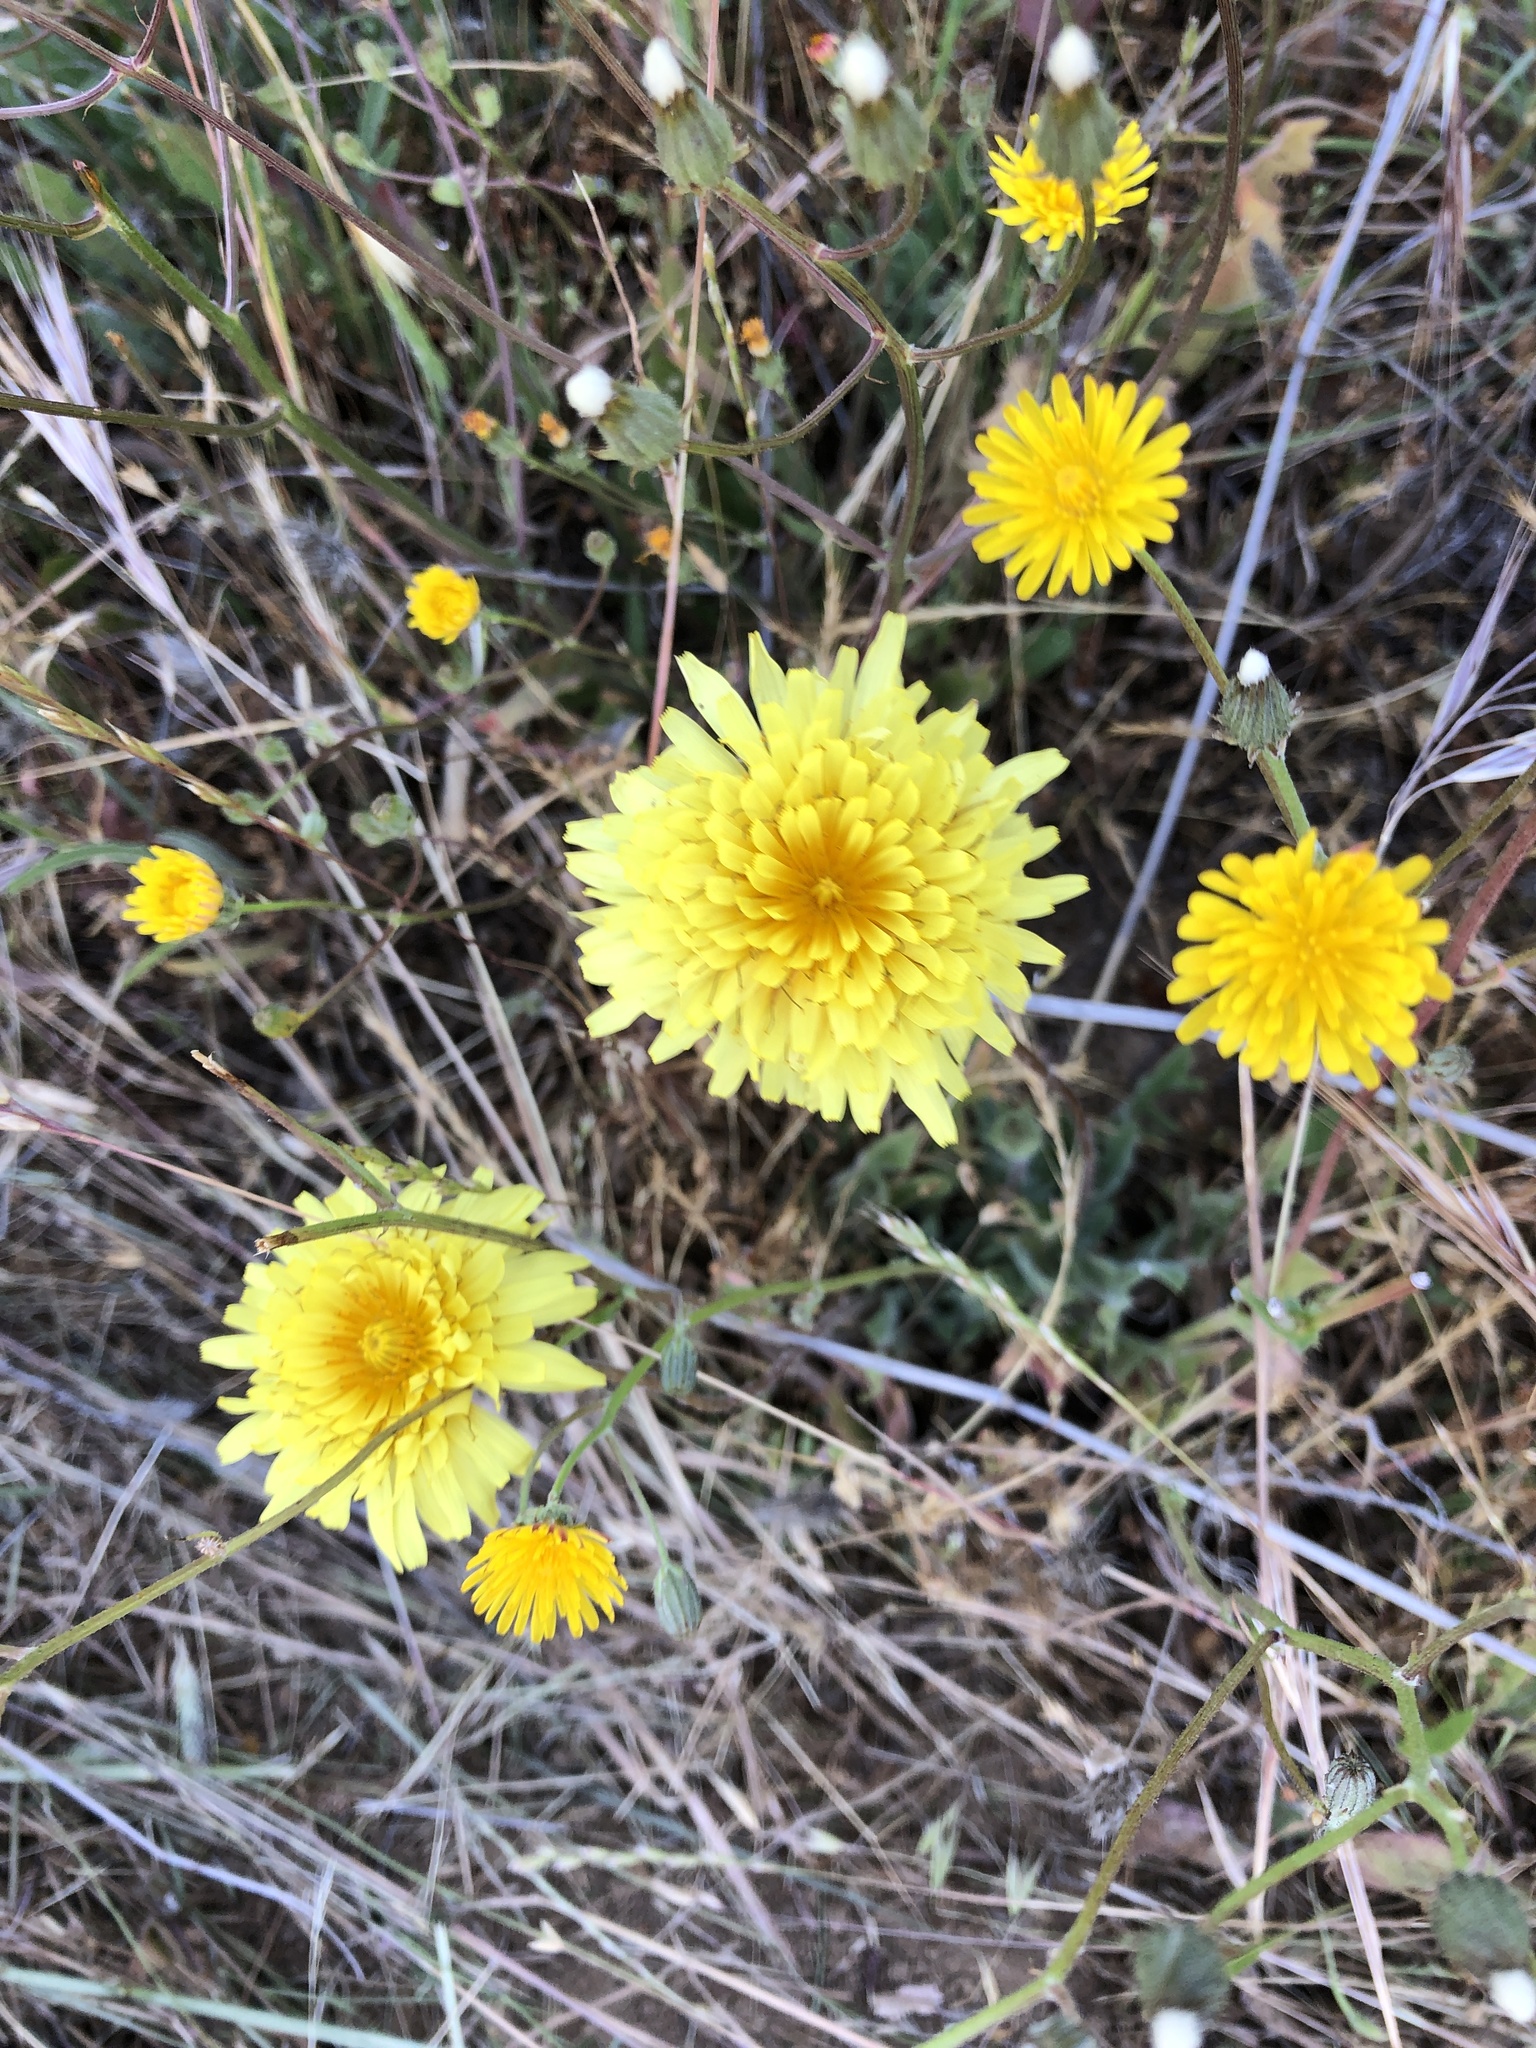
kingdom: Plantae
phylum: Tracheophyta
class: Magnoliopsida
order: Asterales
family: Asteraceae
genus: Agoseris
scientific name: Agoseris hirsuta
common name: Coast range agoseris
